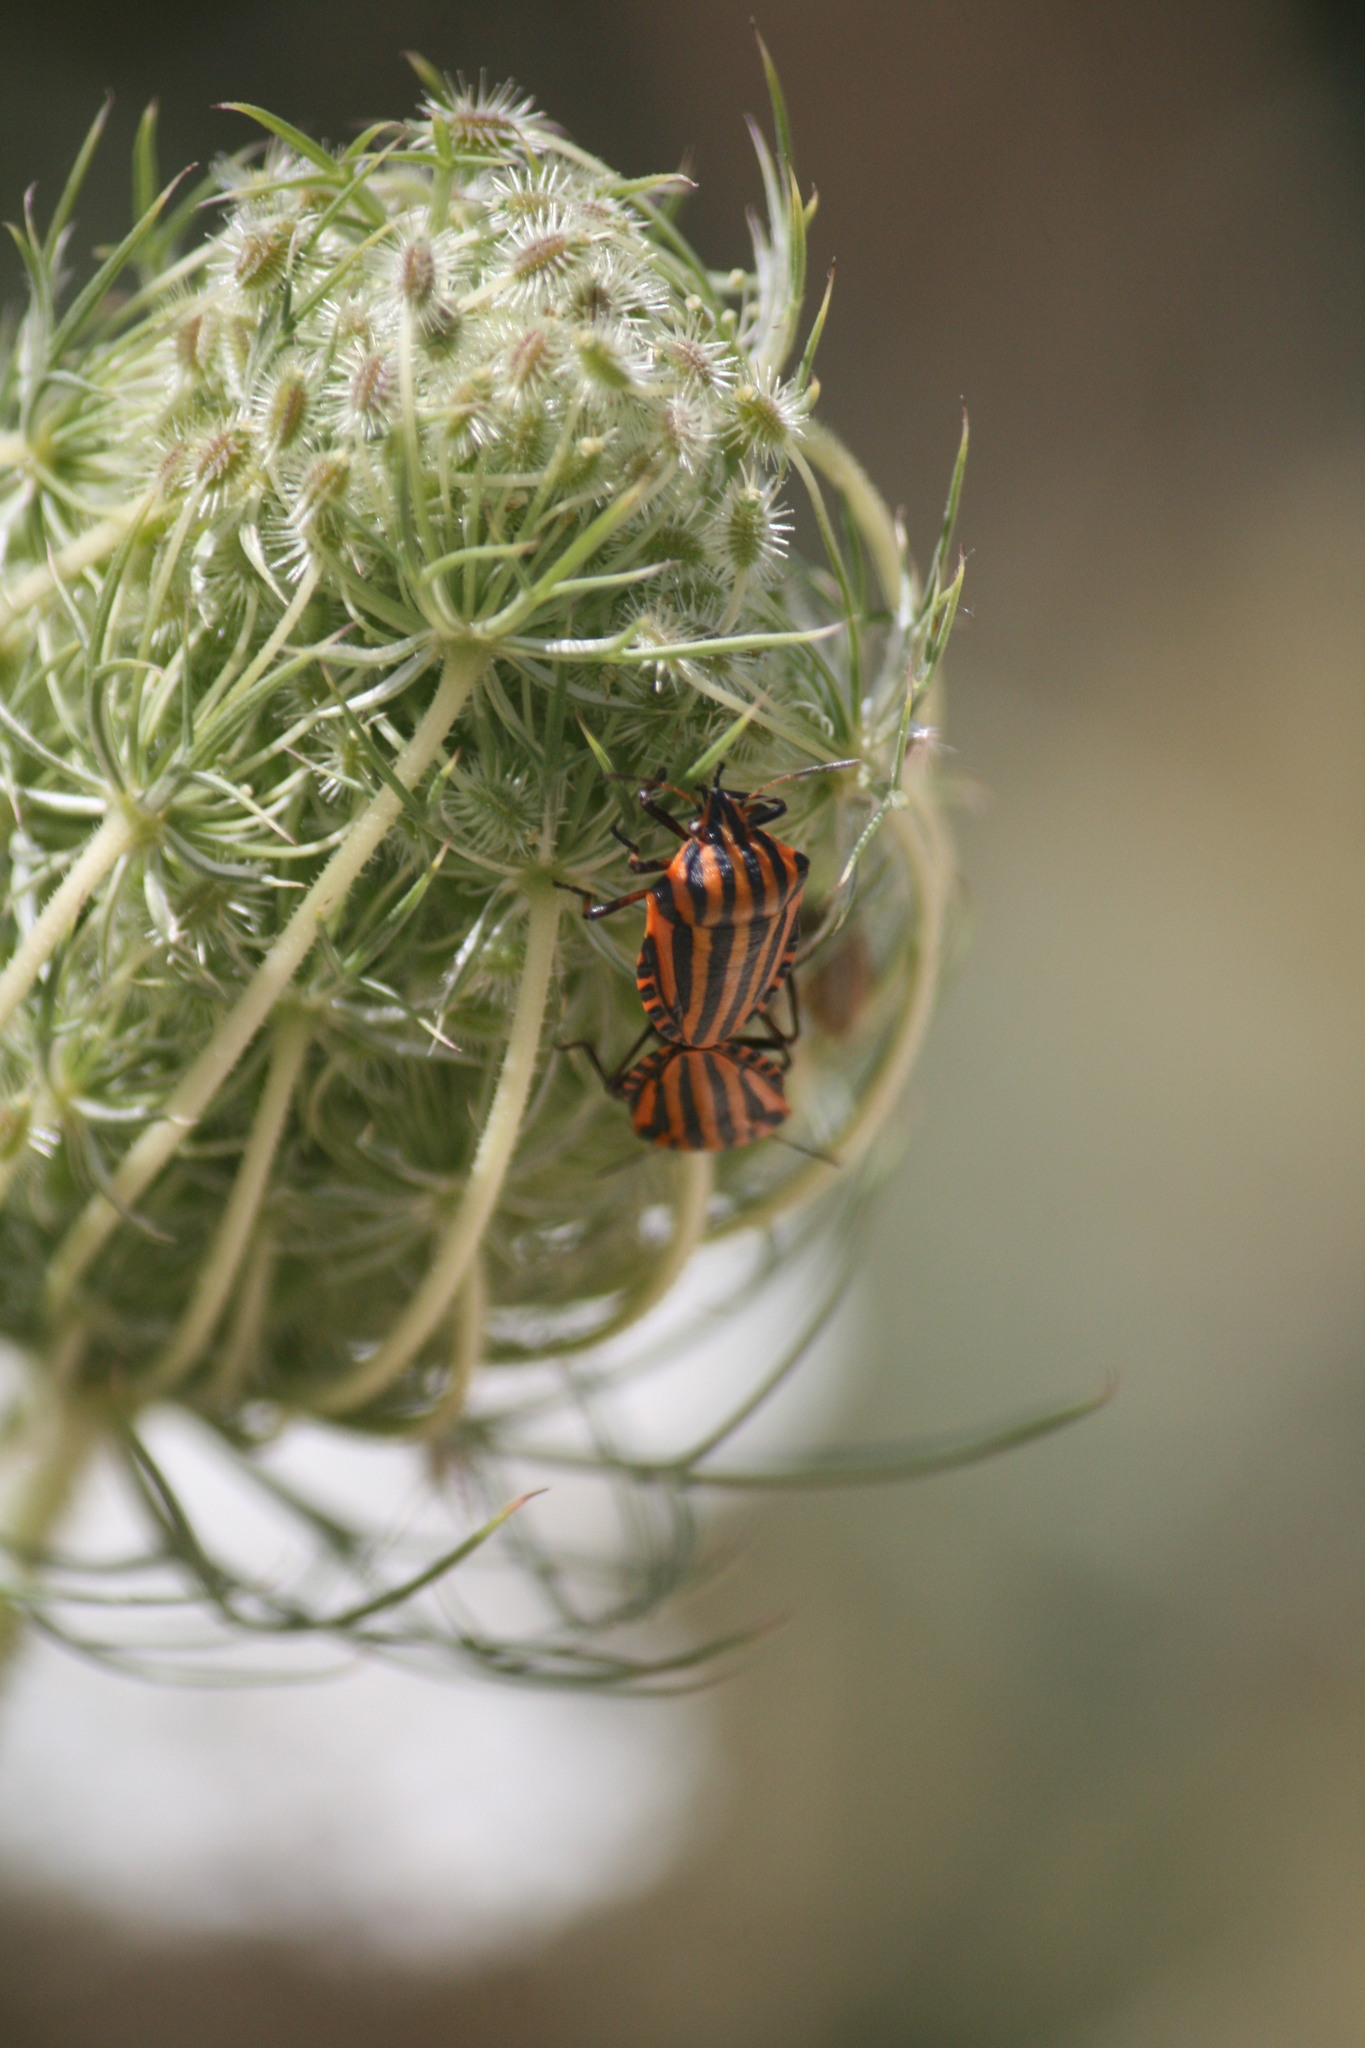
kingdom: Animalia
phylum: Arthropoda
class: Insecta
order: Hemiptera
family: Pentatomidae
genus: Graphosoma
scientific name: Graphosoma lineatum
